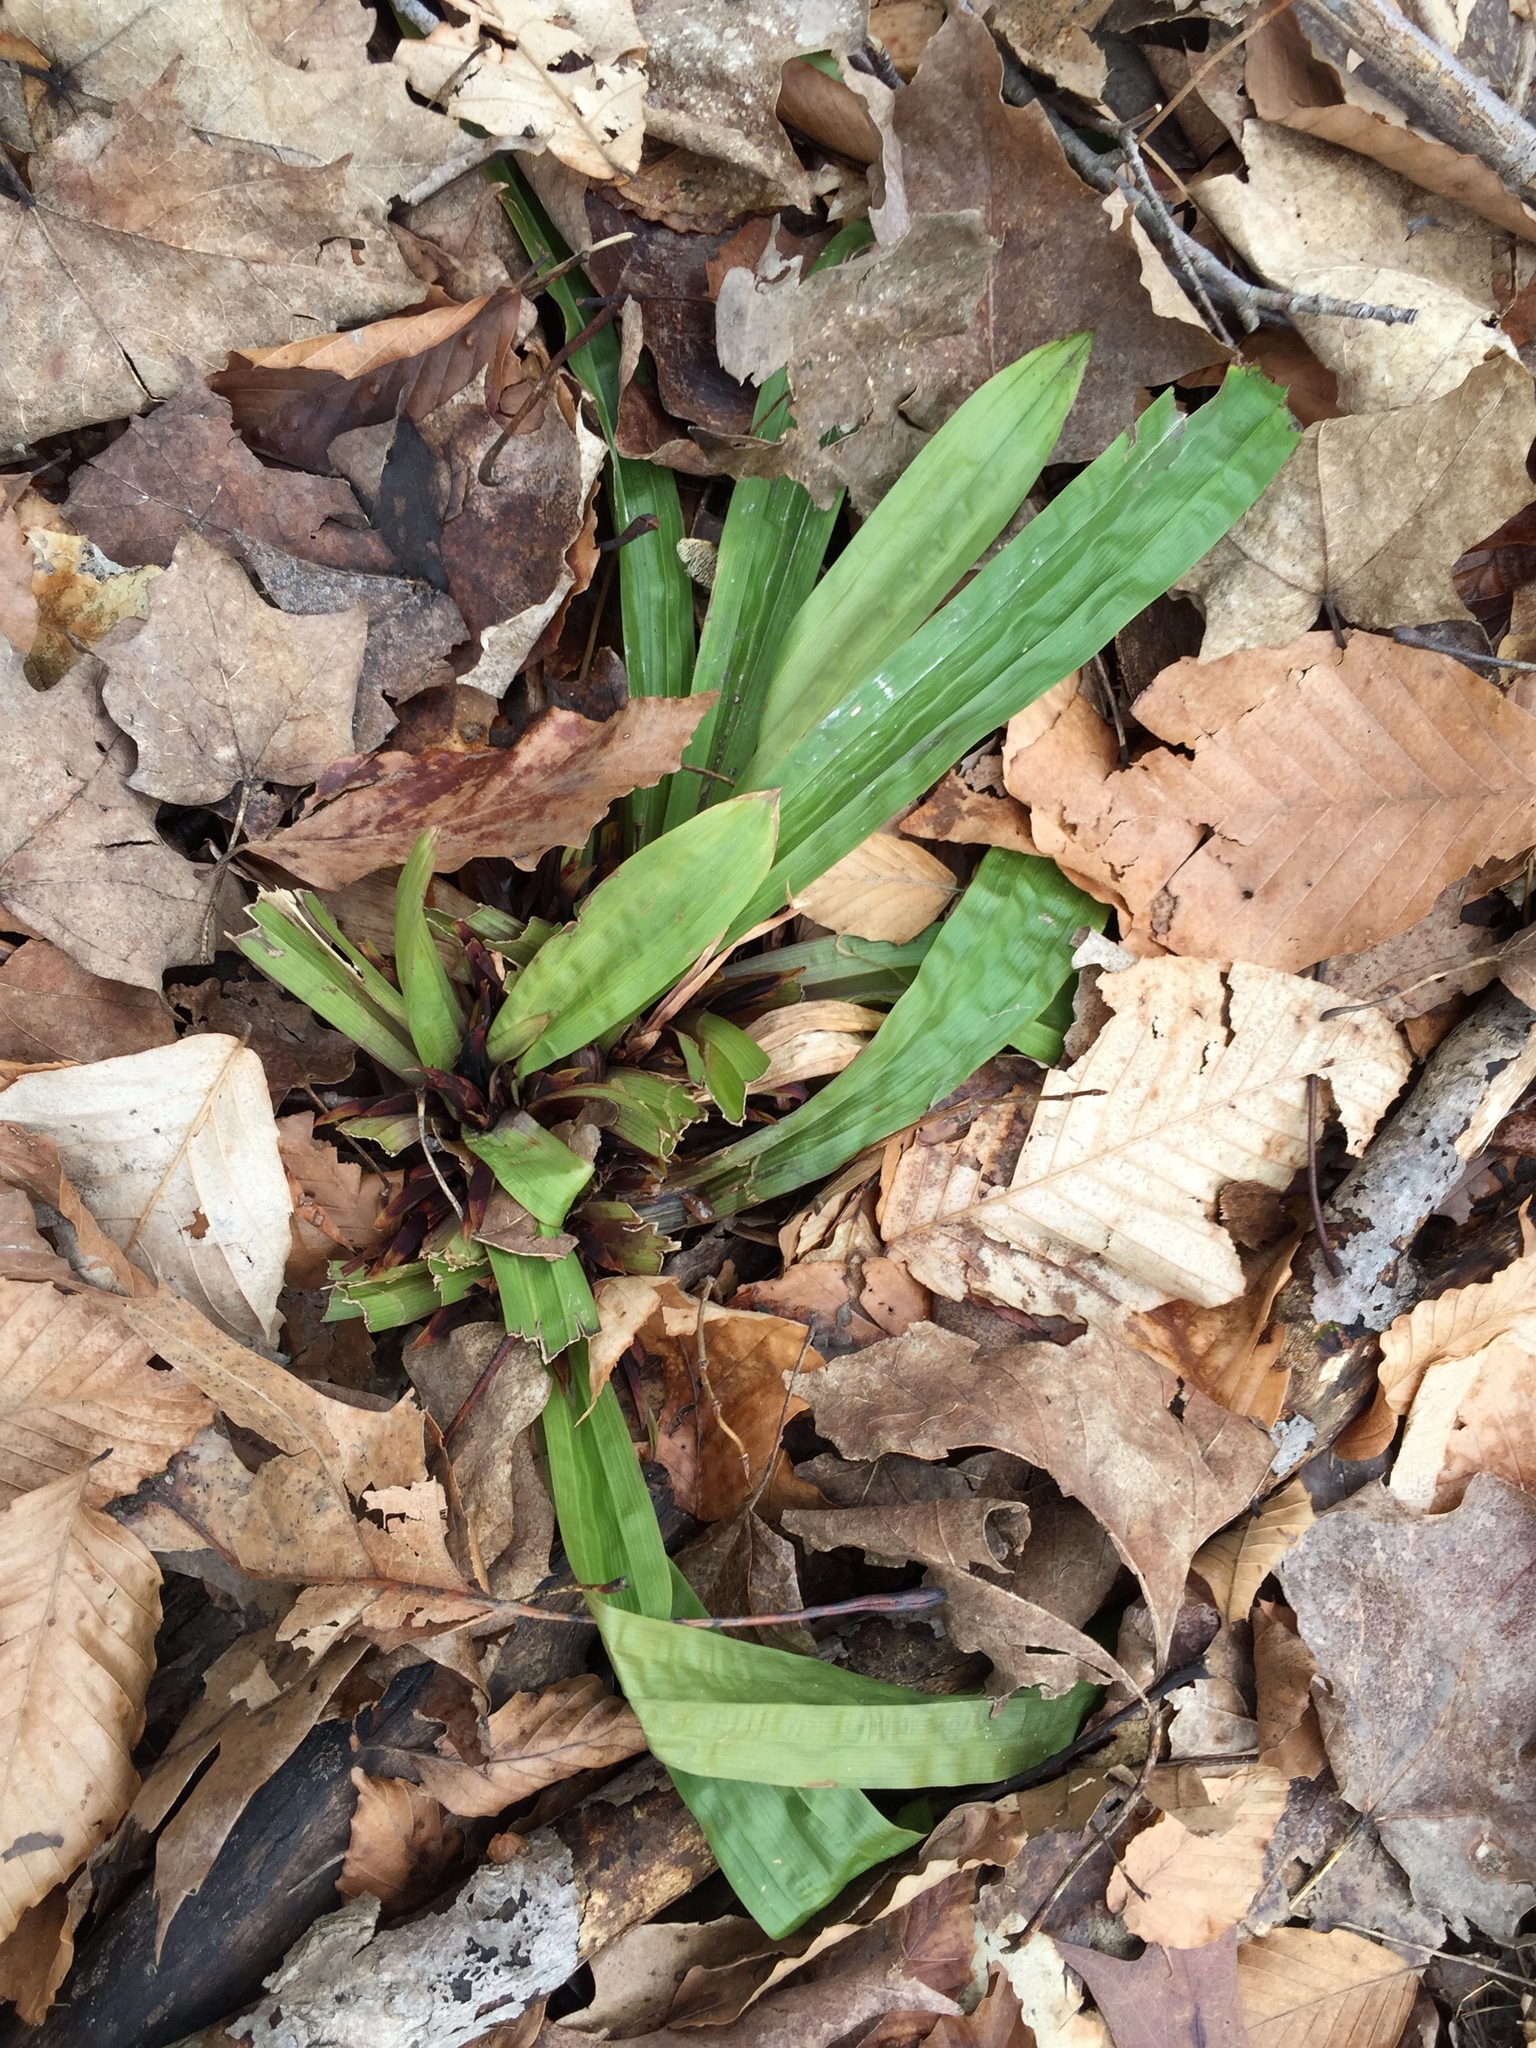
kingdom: Plantae
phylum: Tracheophyta
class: Liliopsida
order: Poales
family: Cyperaceae
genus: Carex
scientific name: Carex plantaginea
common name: Plantain-leaved sedge
